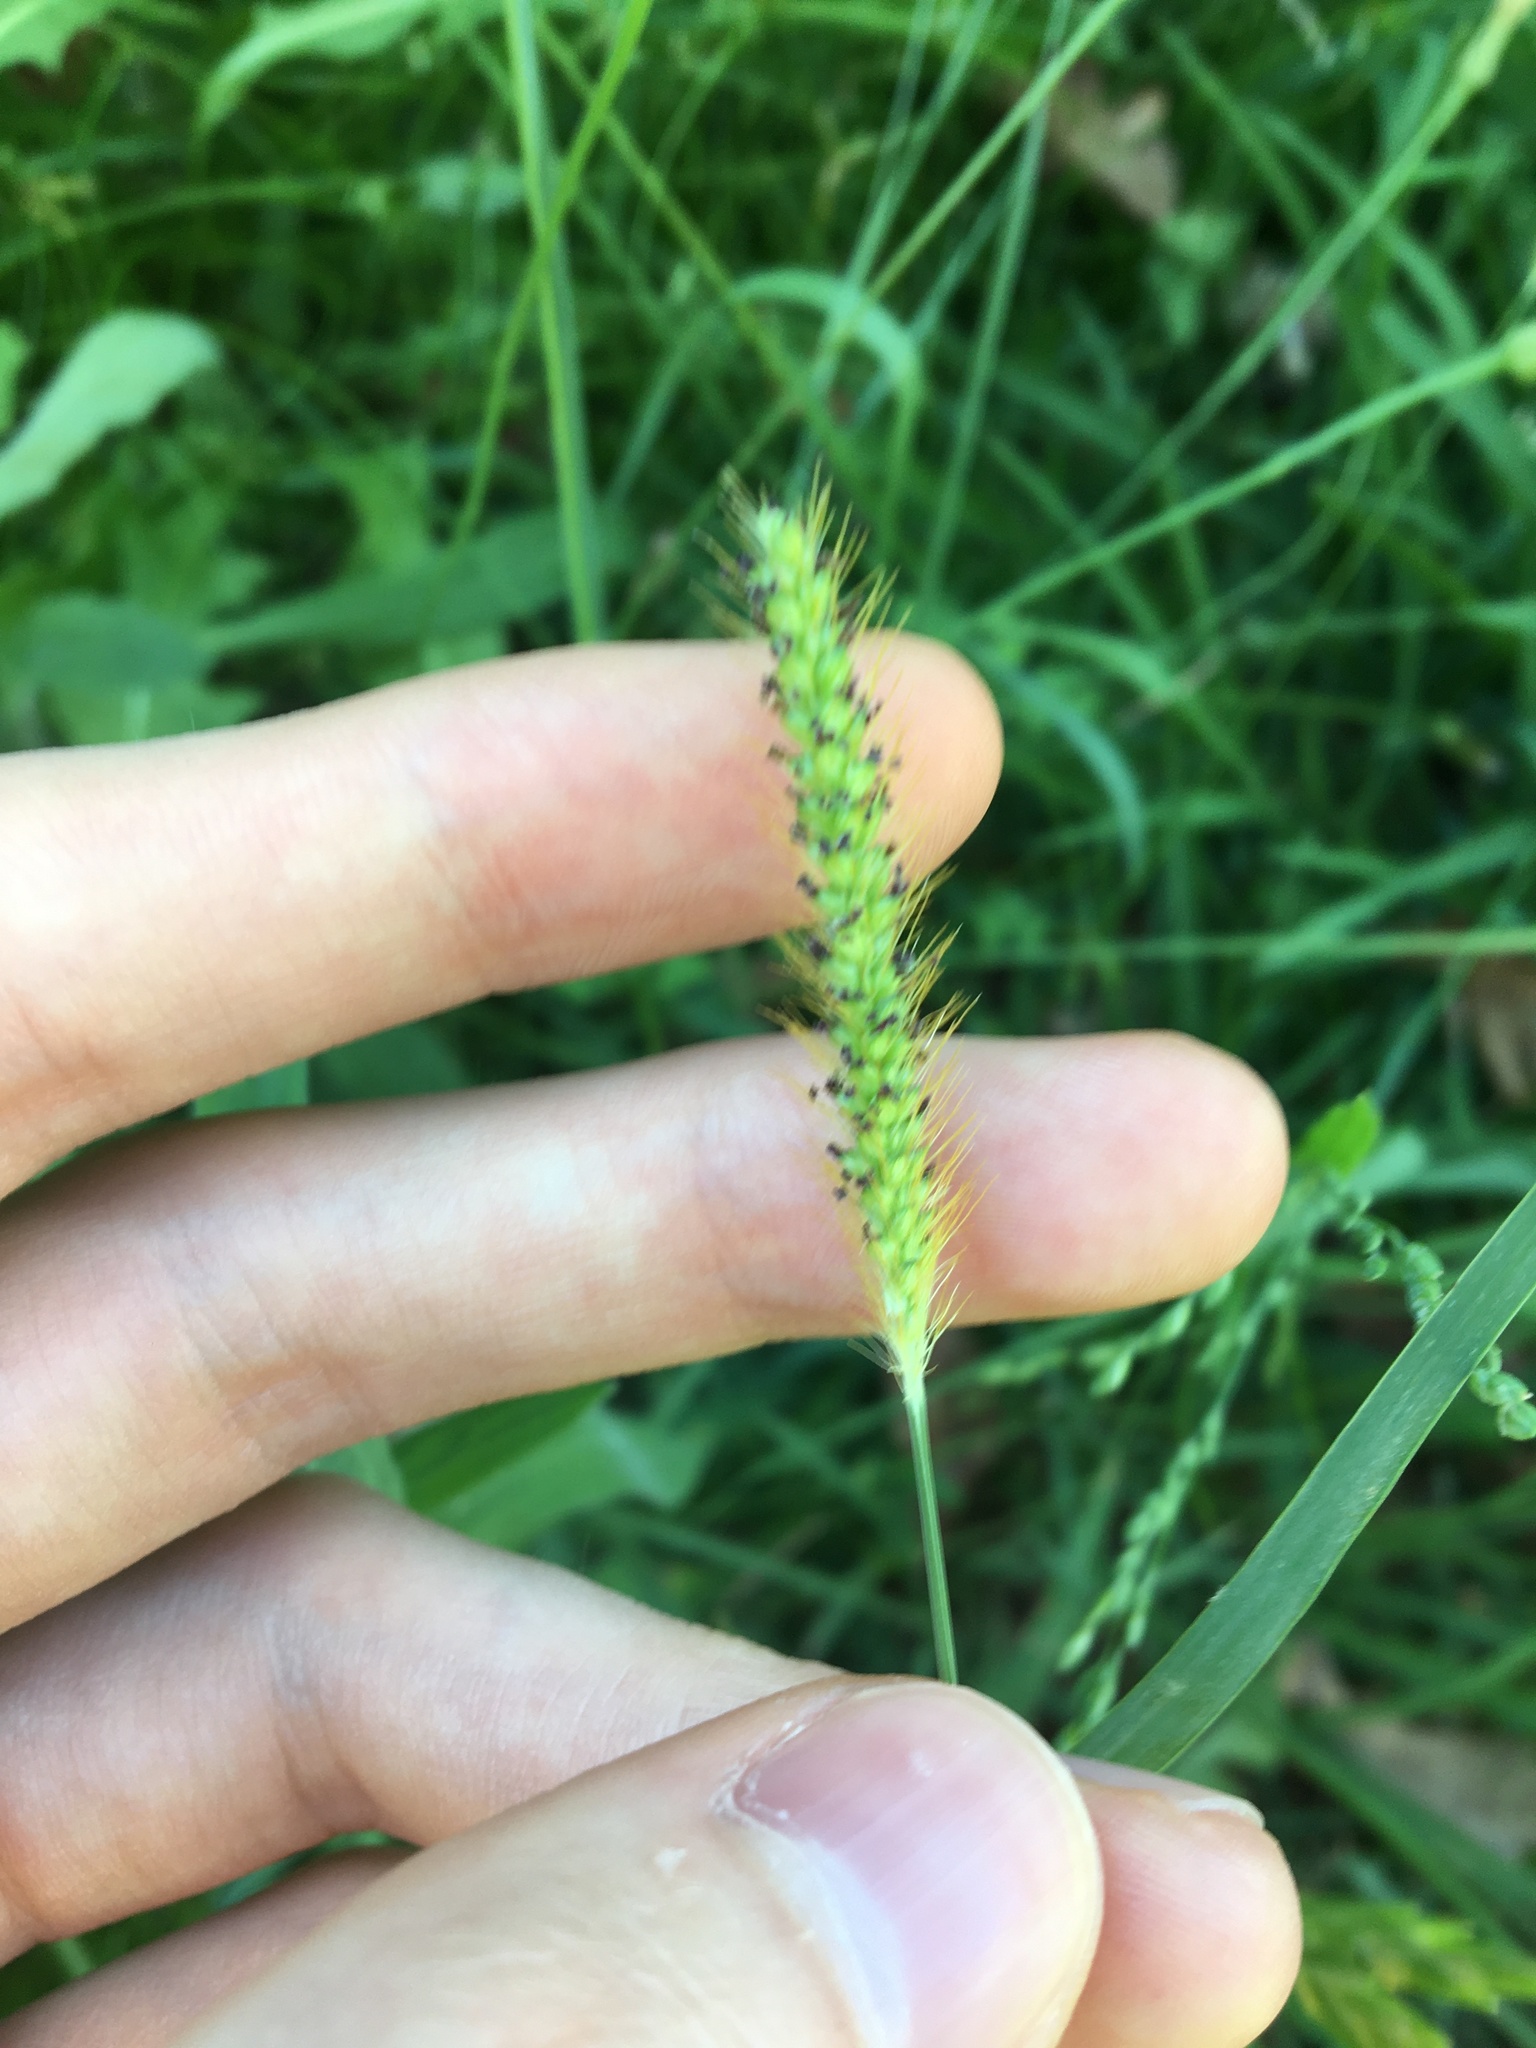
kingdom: Plantae
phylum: Tracheophyta
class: Liliopsida
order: Poales
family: Poaceae
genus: Setaria
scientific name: Setaria parviflora
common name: Knotroot bristle-grass
